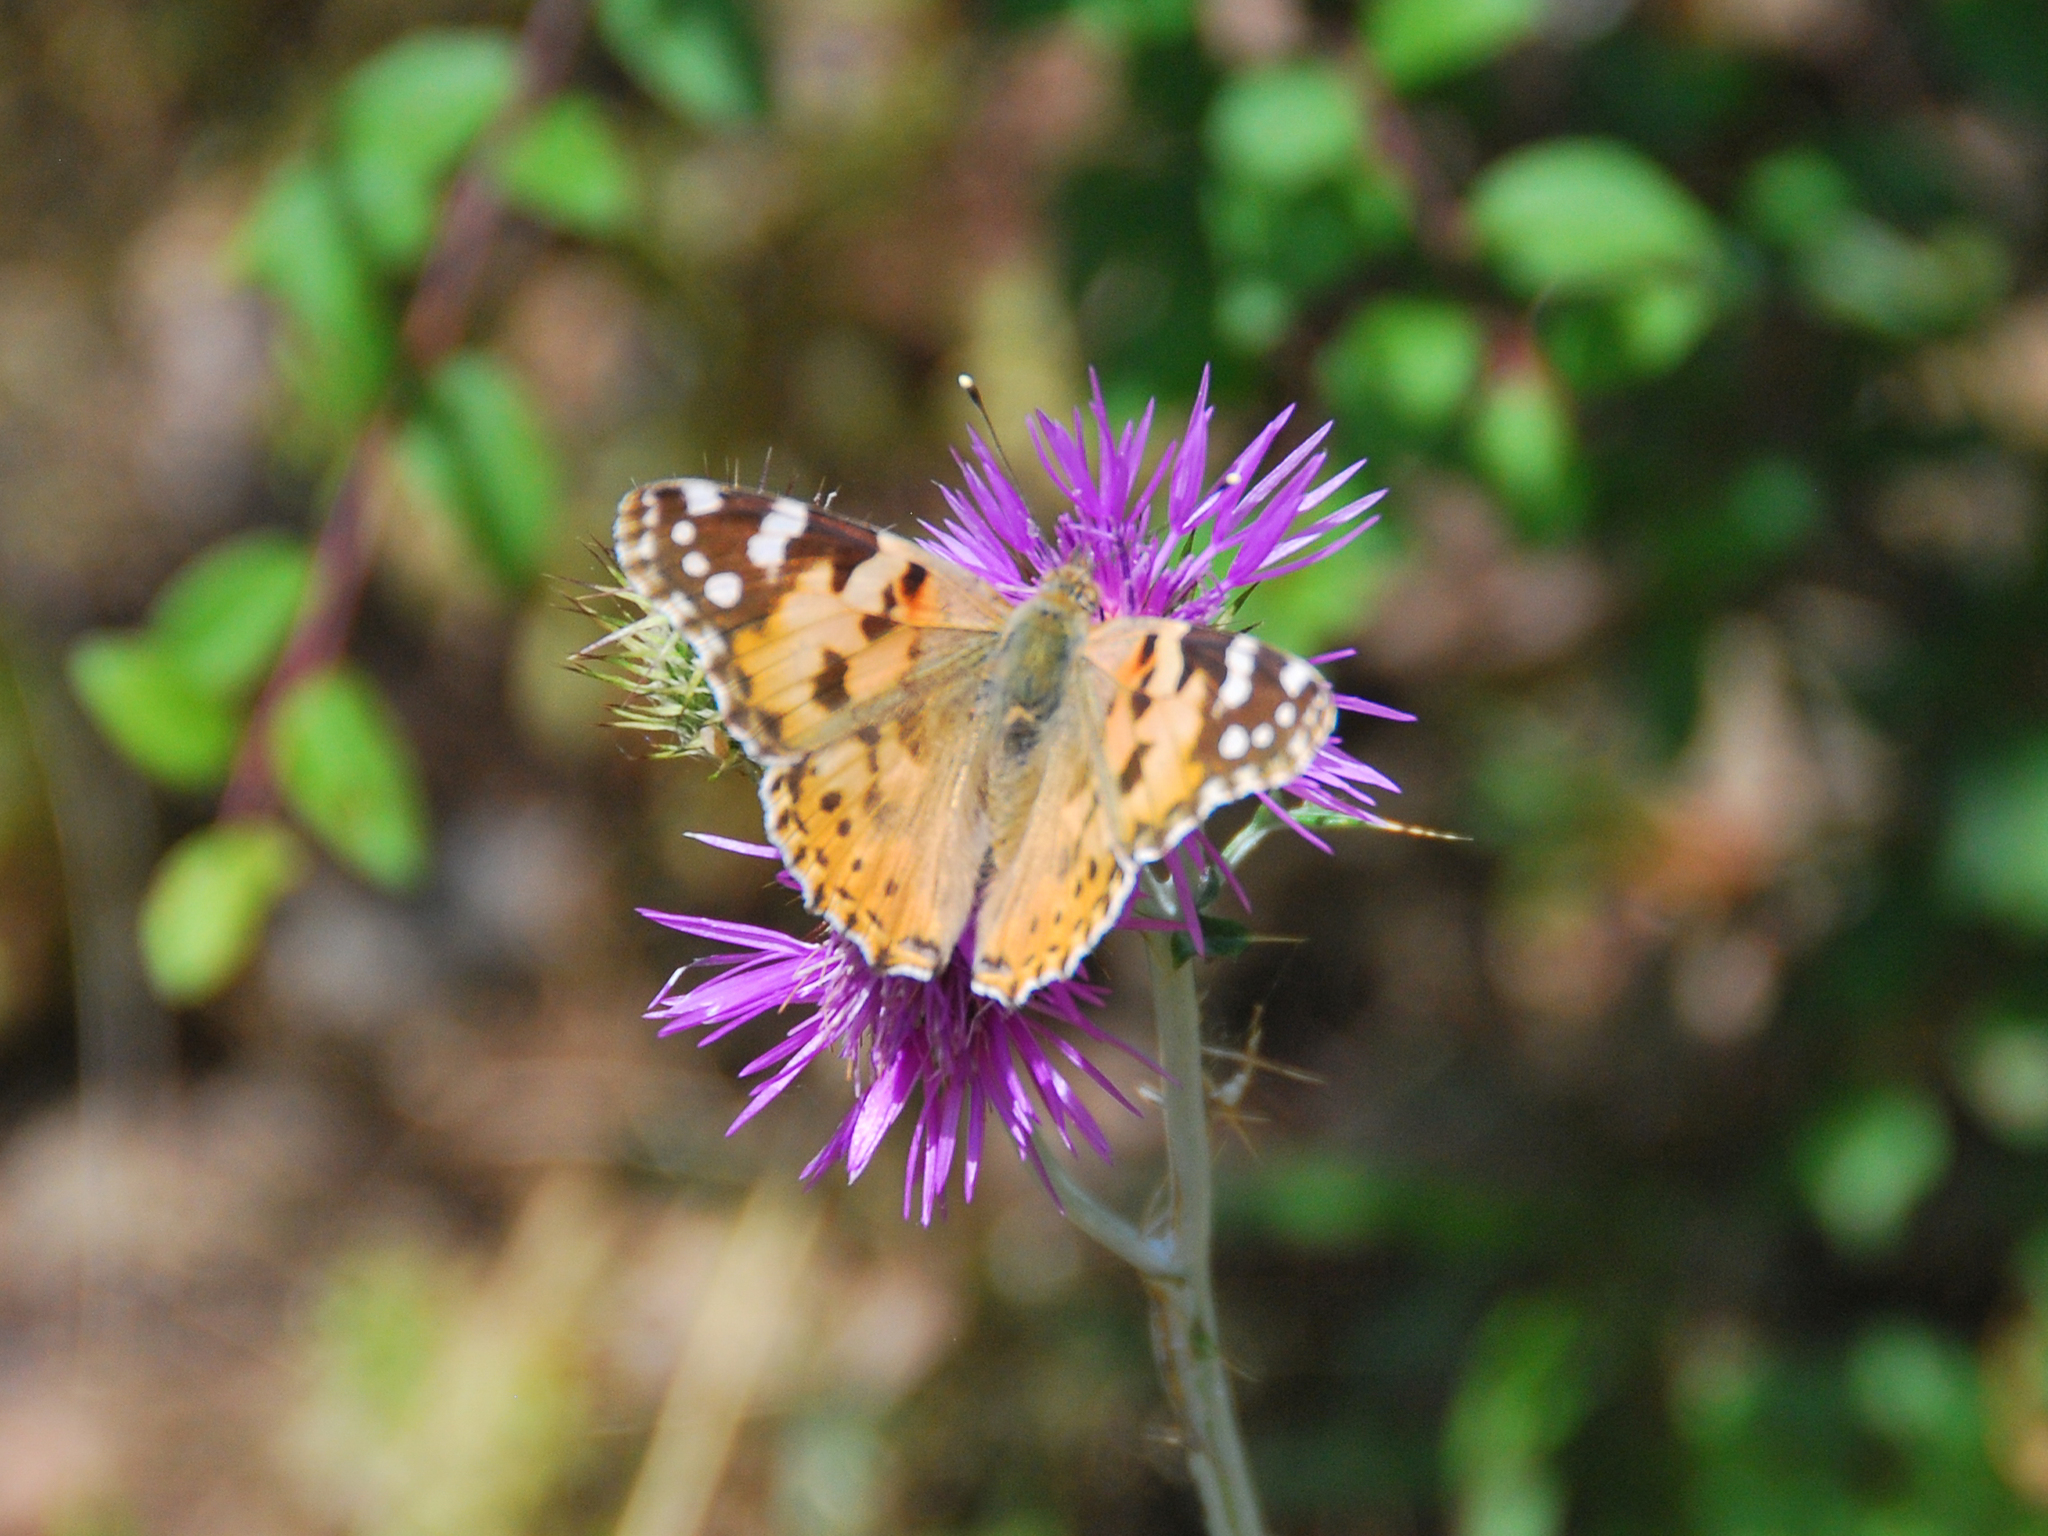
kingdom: Animalia
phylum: Arthropoda
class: Insecta
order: Lepidoptera
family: Nymphalidae
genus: Vanessa
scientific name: Vanessa cardui
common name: Painted lady
